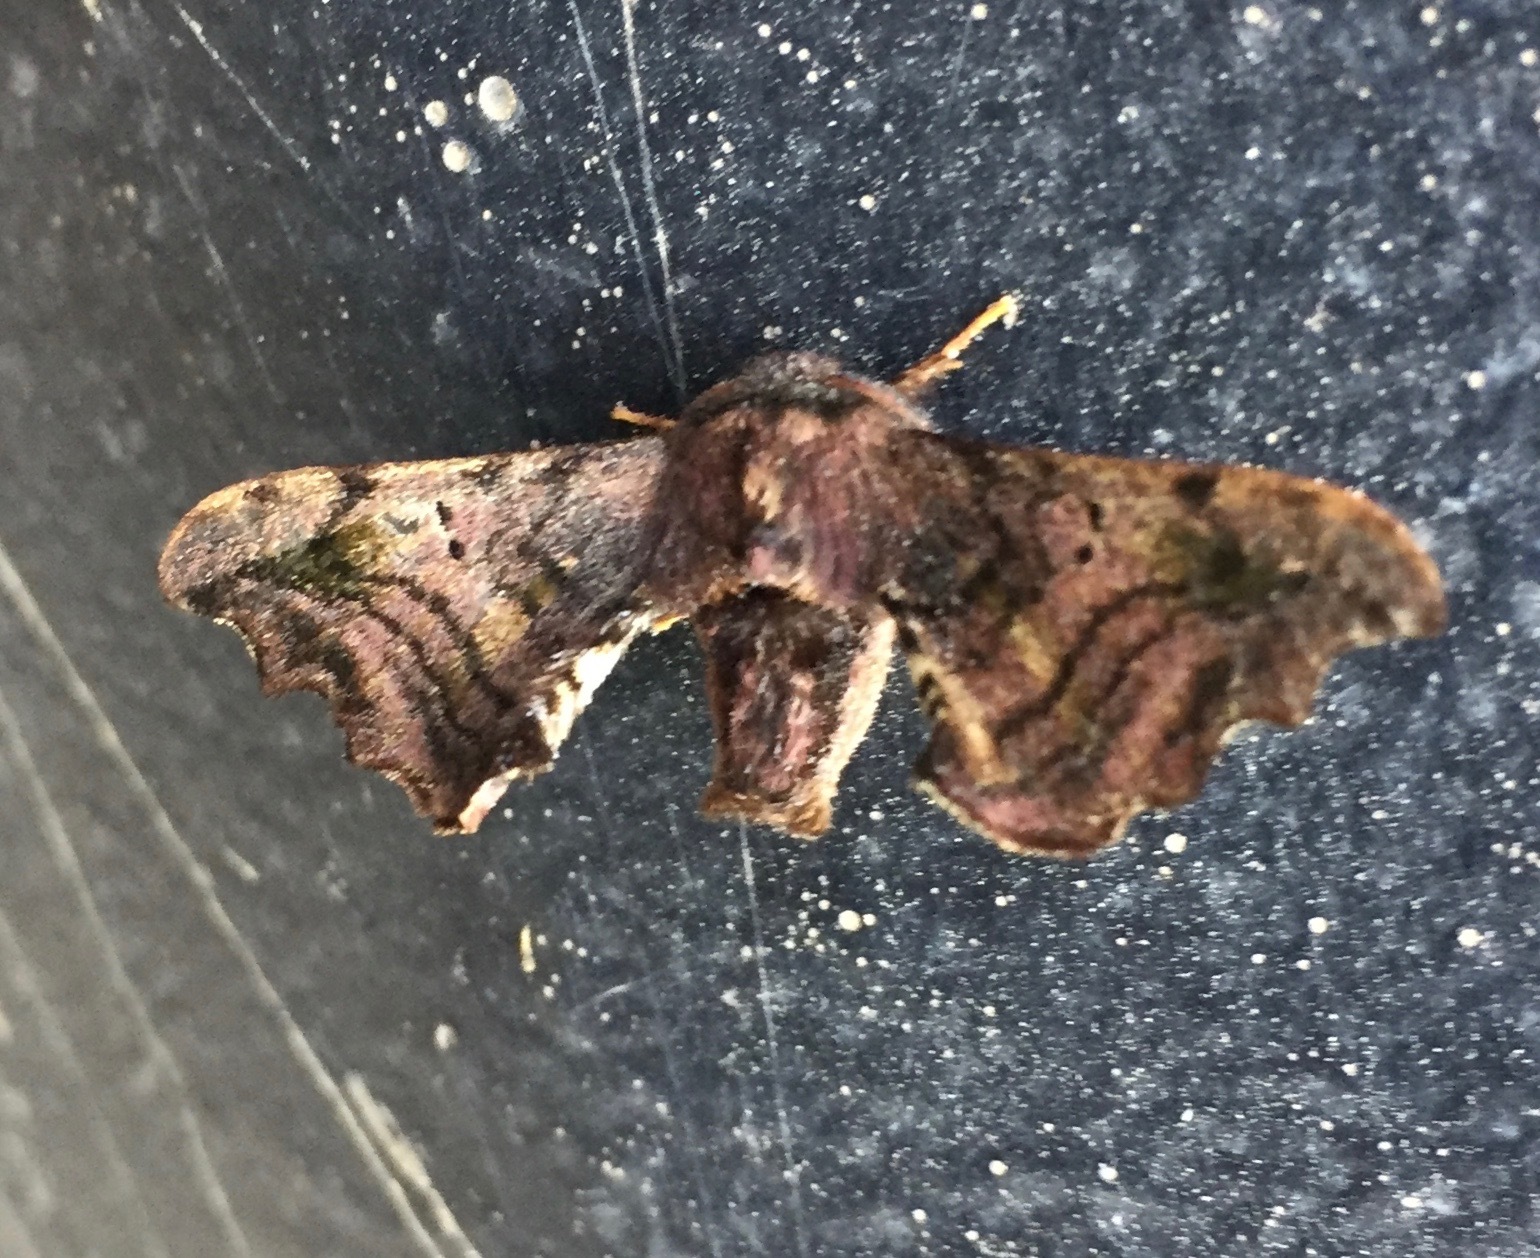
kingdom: Animalia
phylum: Arthropoda
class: Insecta
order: Lepidoptera
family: Bombycidae
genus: Quentalia
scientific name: Quentalia excisa
